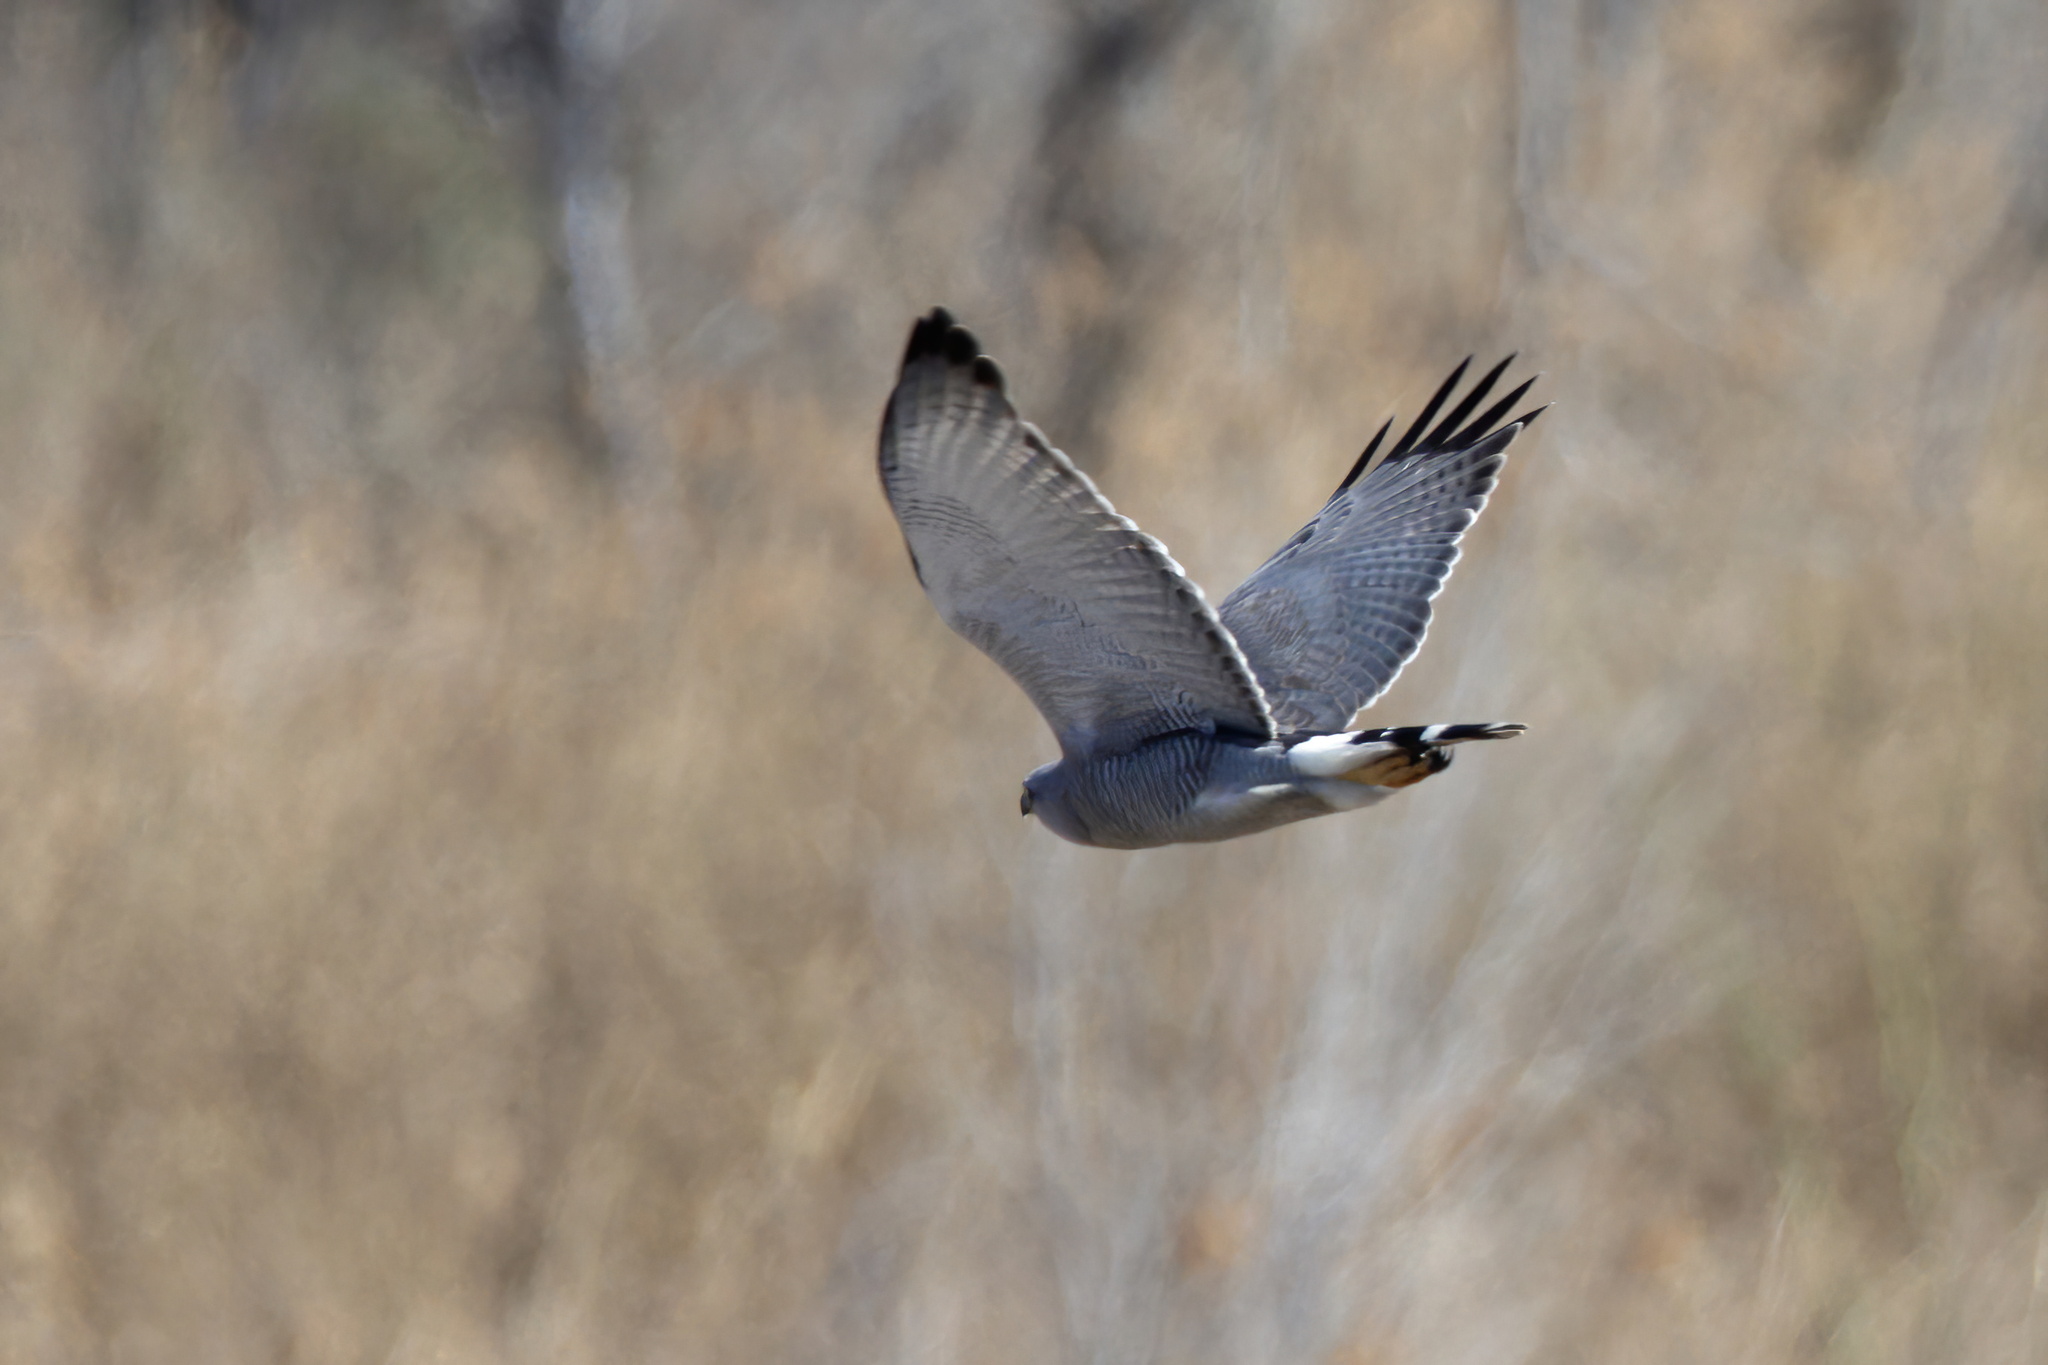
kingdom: Animalia
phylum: Chordata
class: Aves
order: Accipitriformes
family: Accipitridae
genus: Buteo
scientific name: Buteo nitidus
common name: Grey-lined hawk
